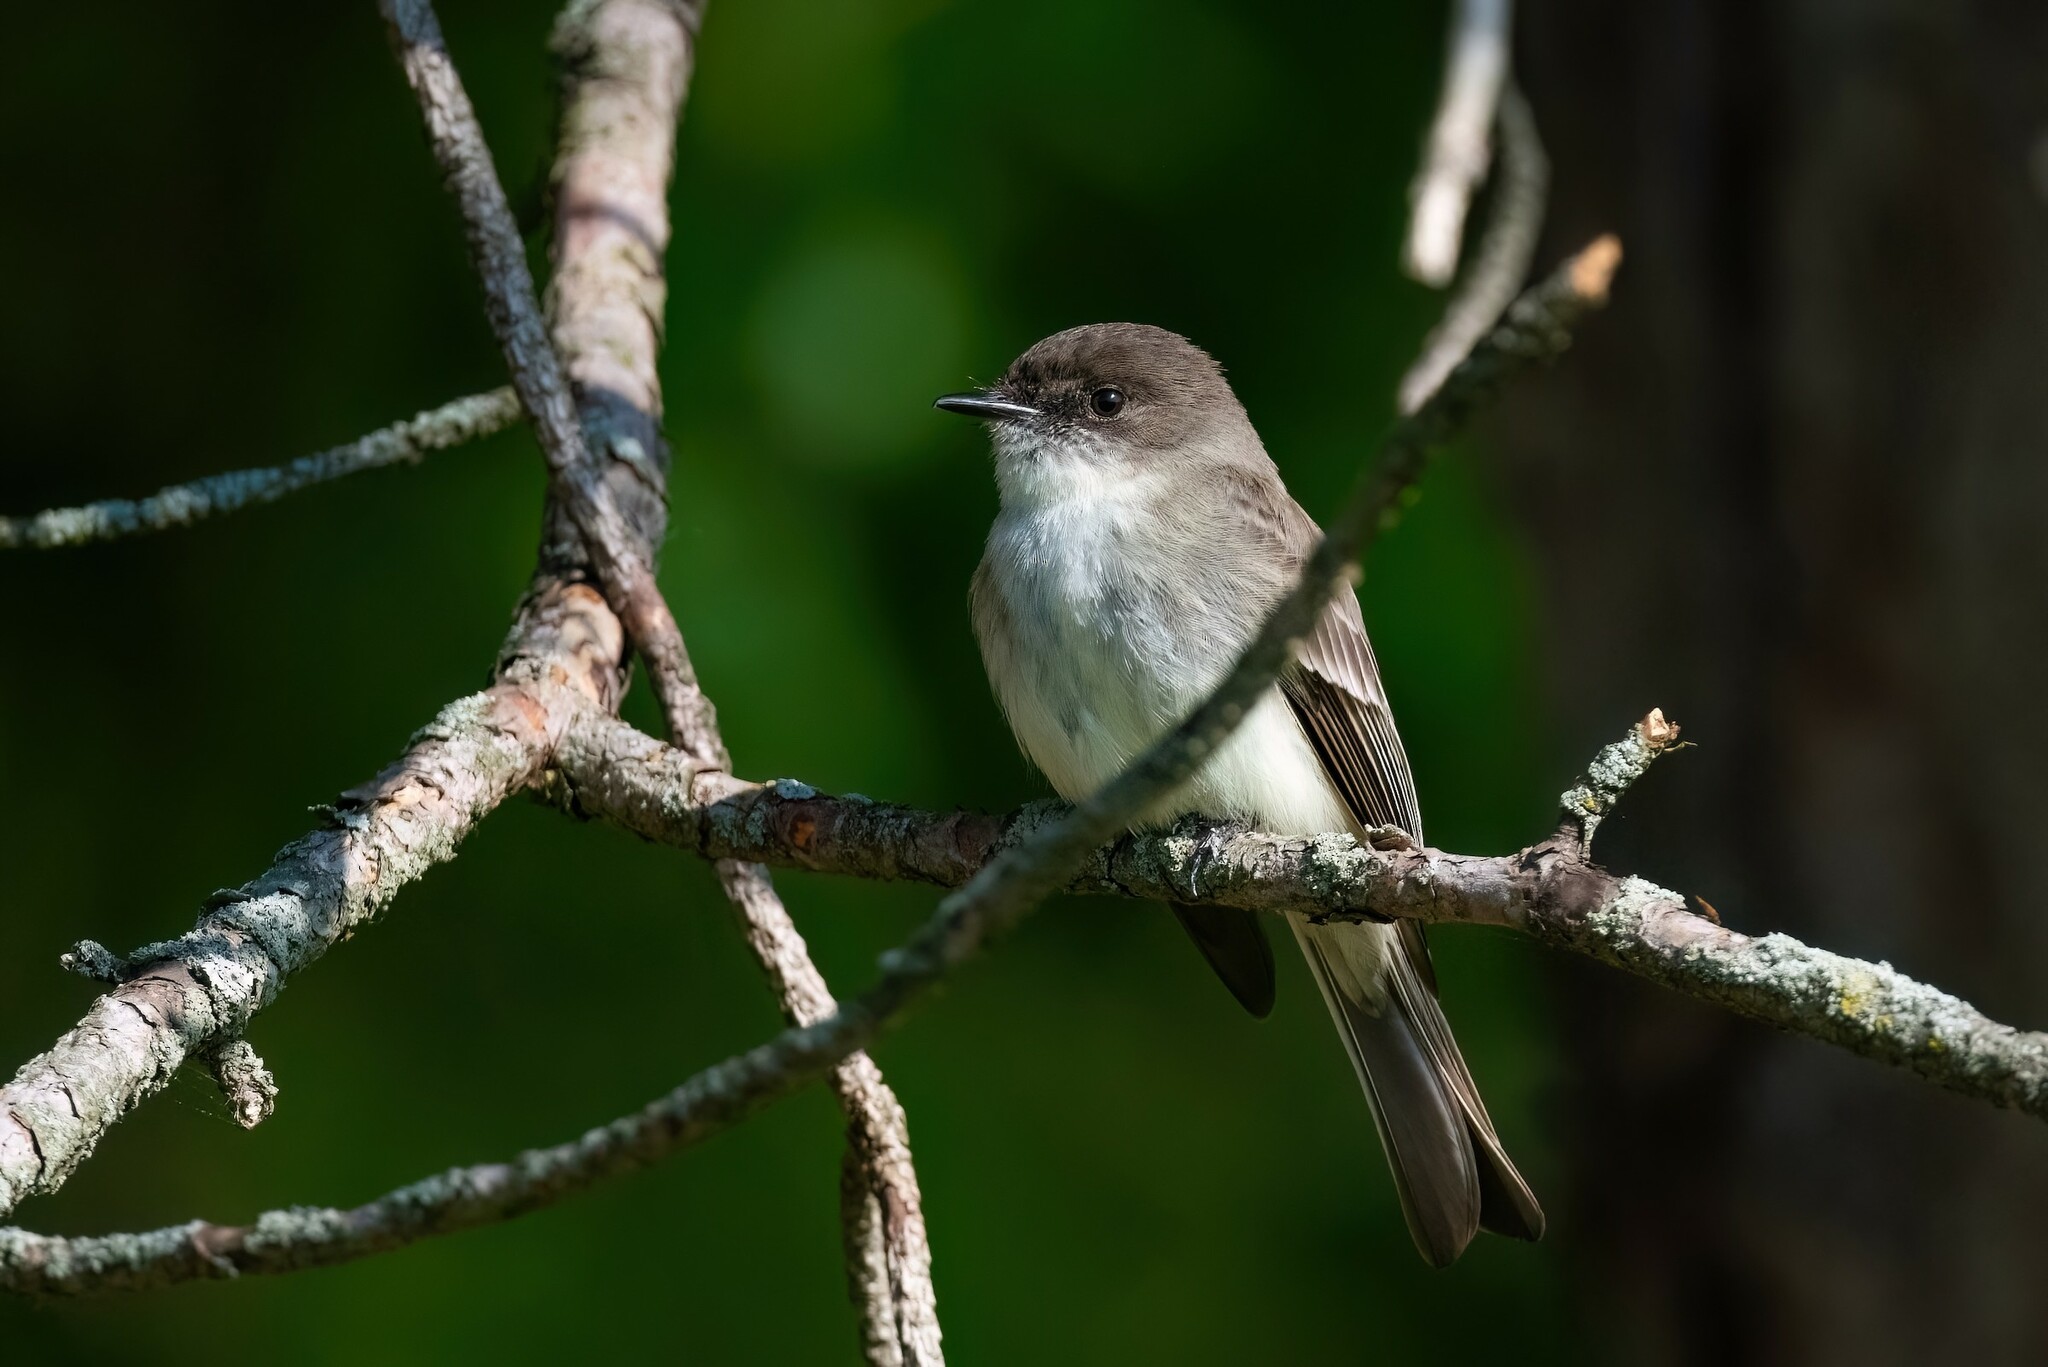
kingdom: Animalia
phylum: Chordata
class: Aves
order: Passeriformes
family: Tyrannidae
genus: Sayornis
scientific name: Sayornis phoebe
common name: Eastern phoebe
